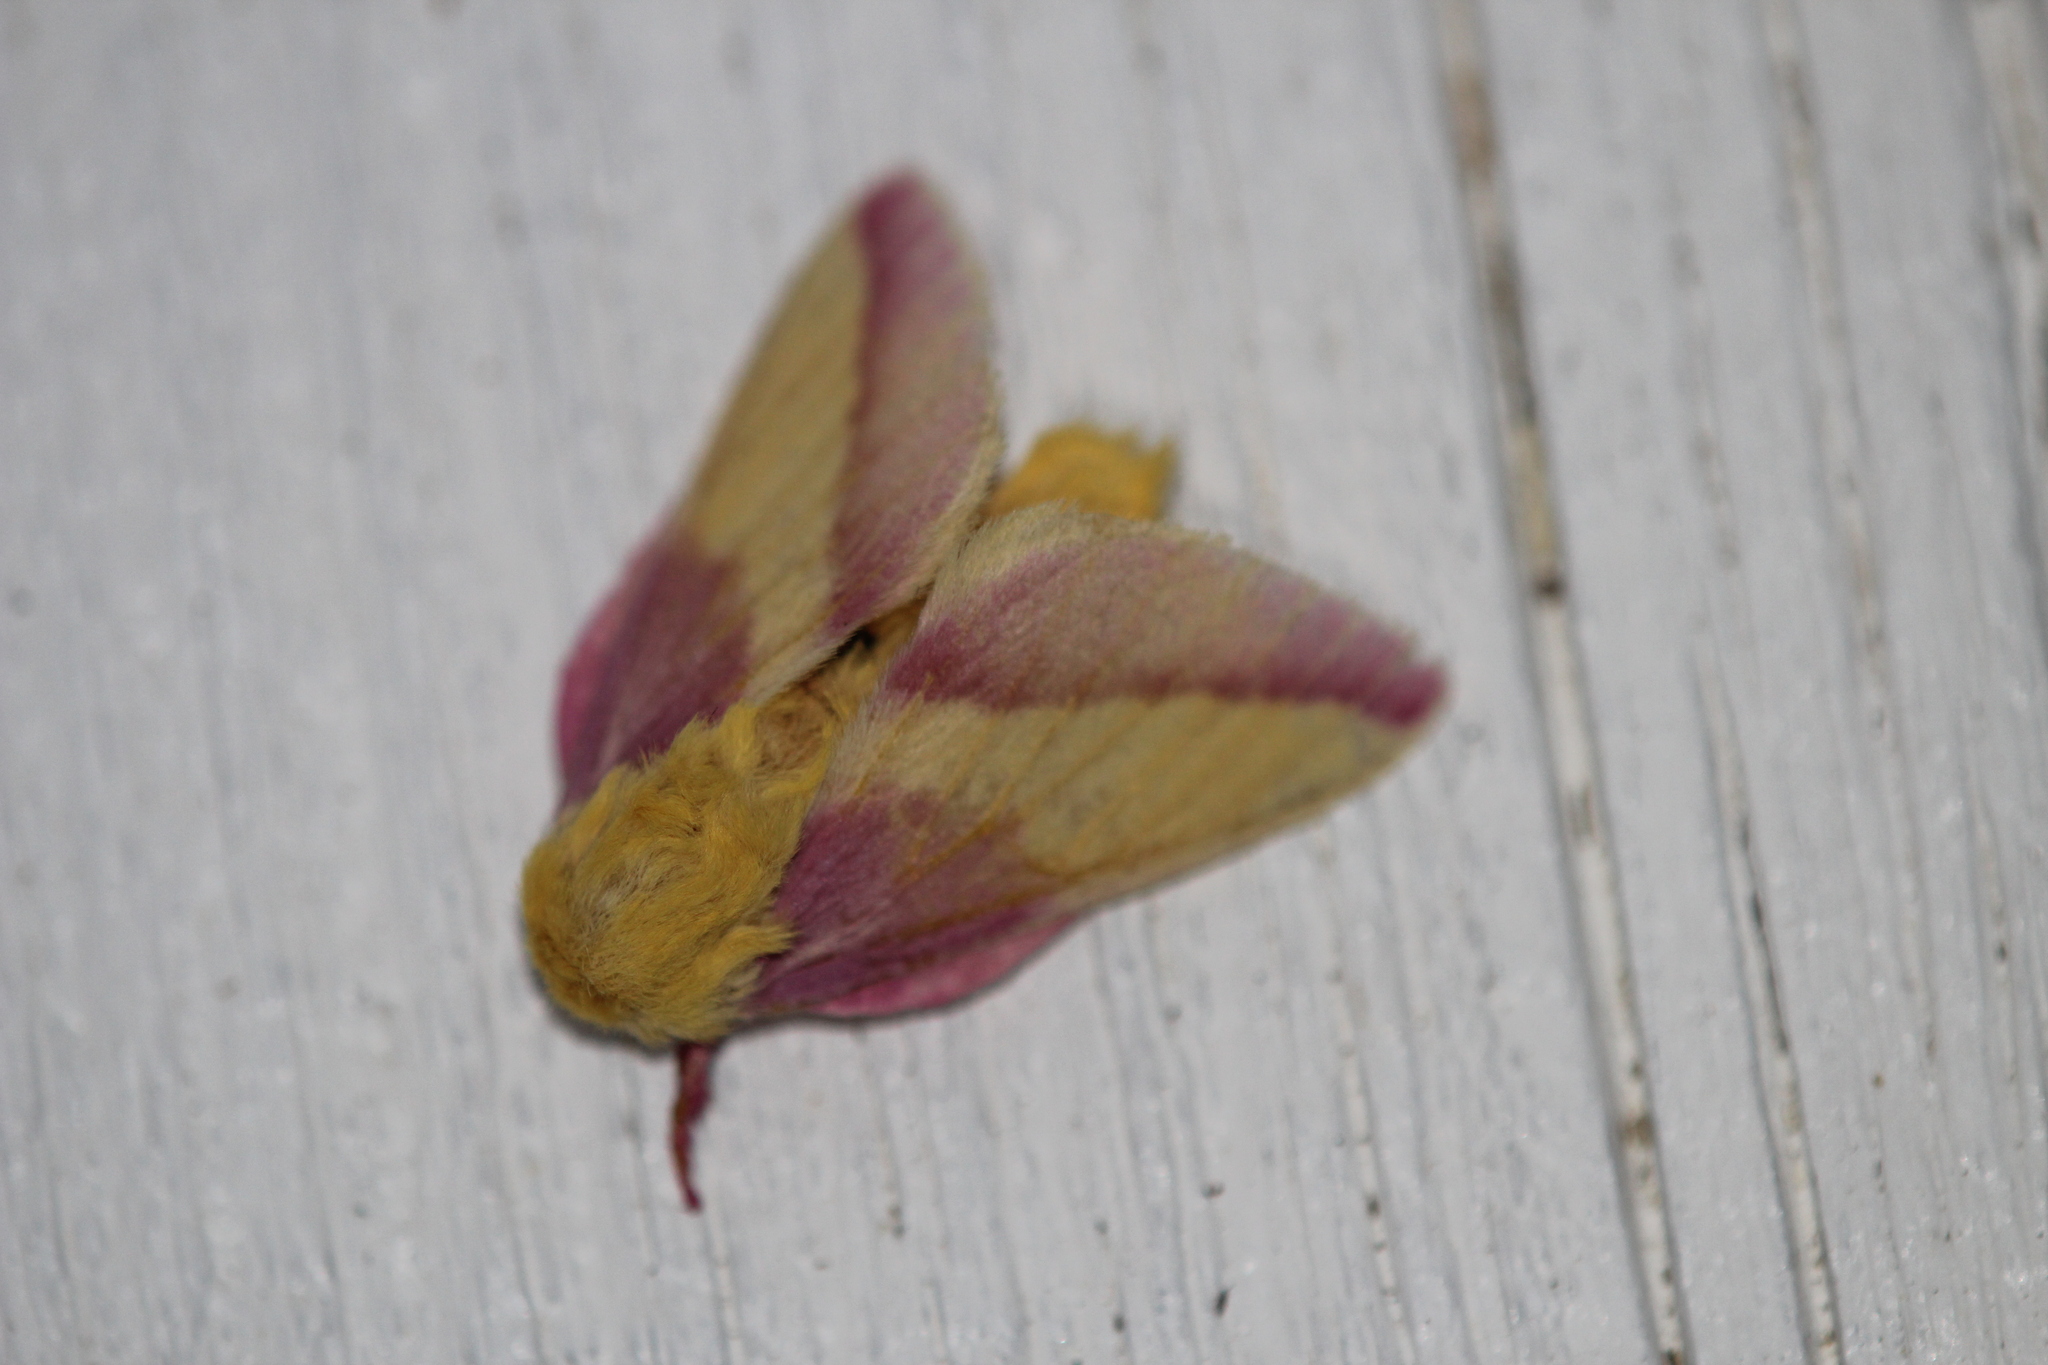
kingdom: Animalia
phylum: Arthropoda
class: Insecta
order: Lepidoptera
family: Saturniidae
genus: Dryocampa
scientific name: Dryocampa rubicunda
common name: Rosy maple moth
